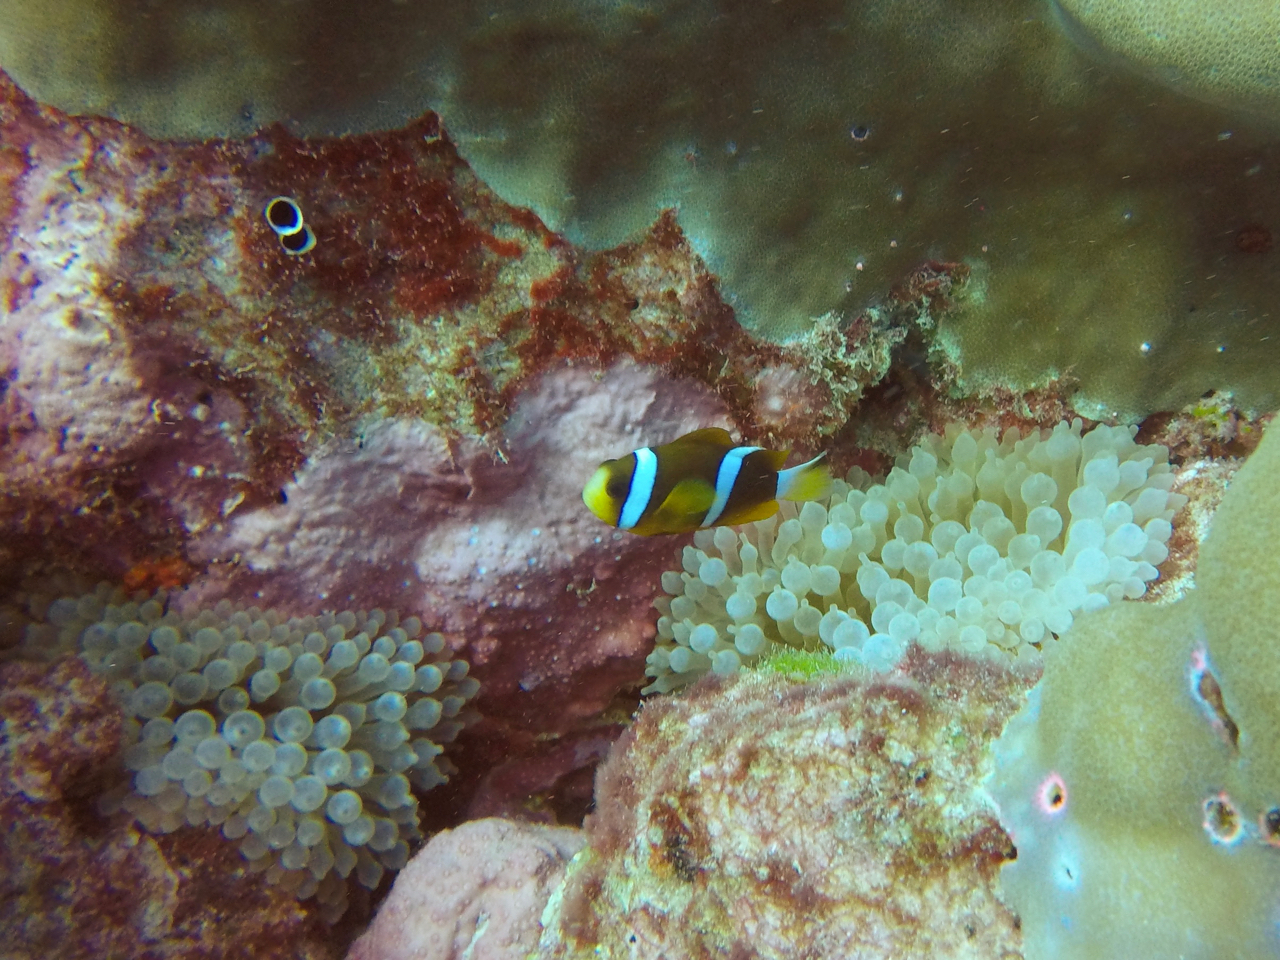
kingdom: Animalia
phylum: Chordata
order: Perciformes
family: Pomacentridae
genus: Amphiprion
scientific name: Amphiprion akindynos
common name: Barrier reef anemonefish
